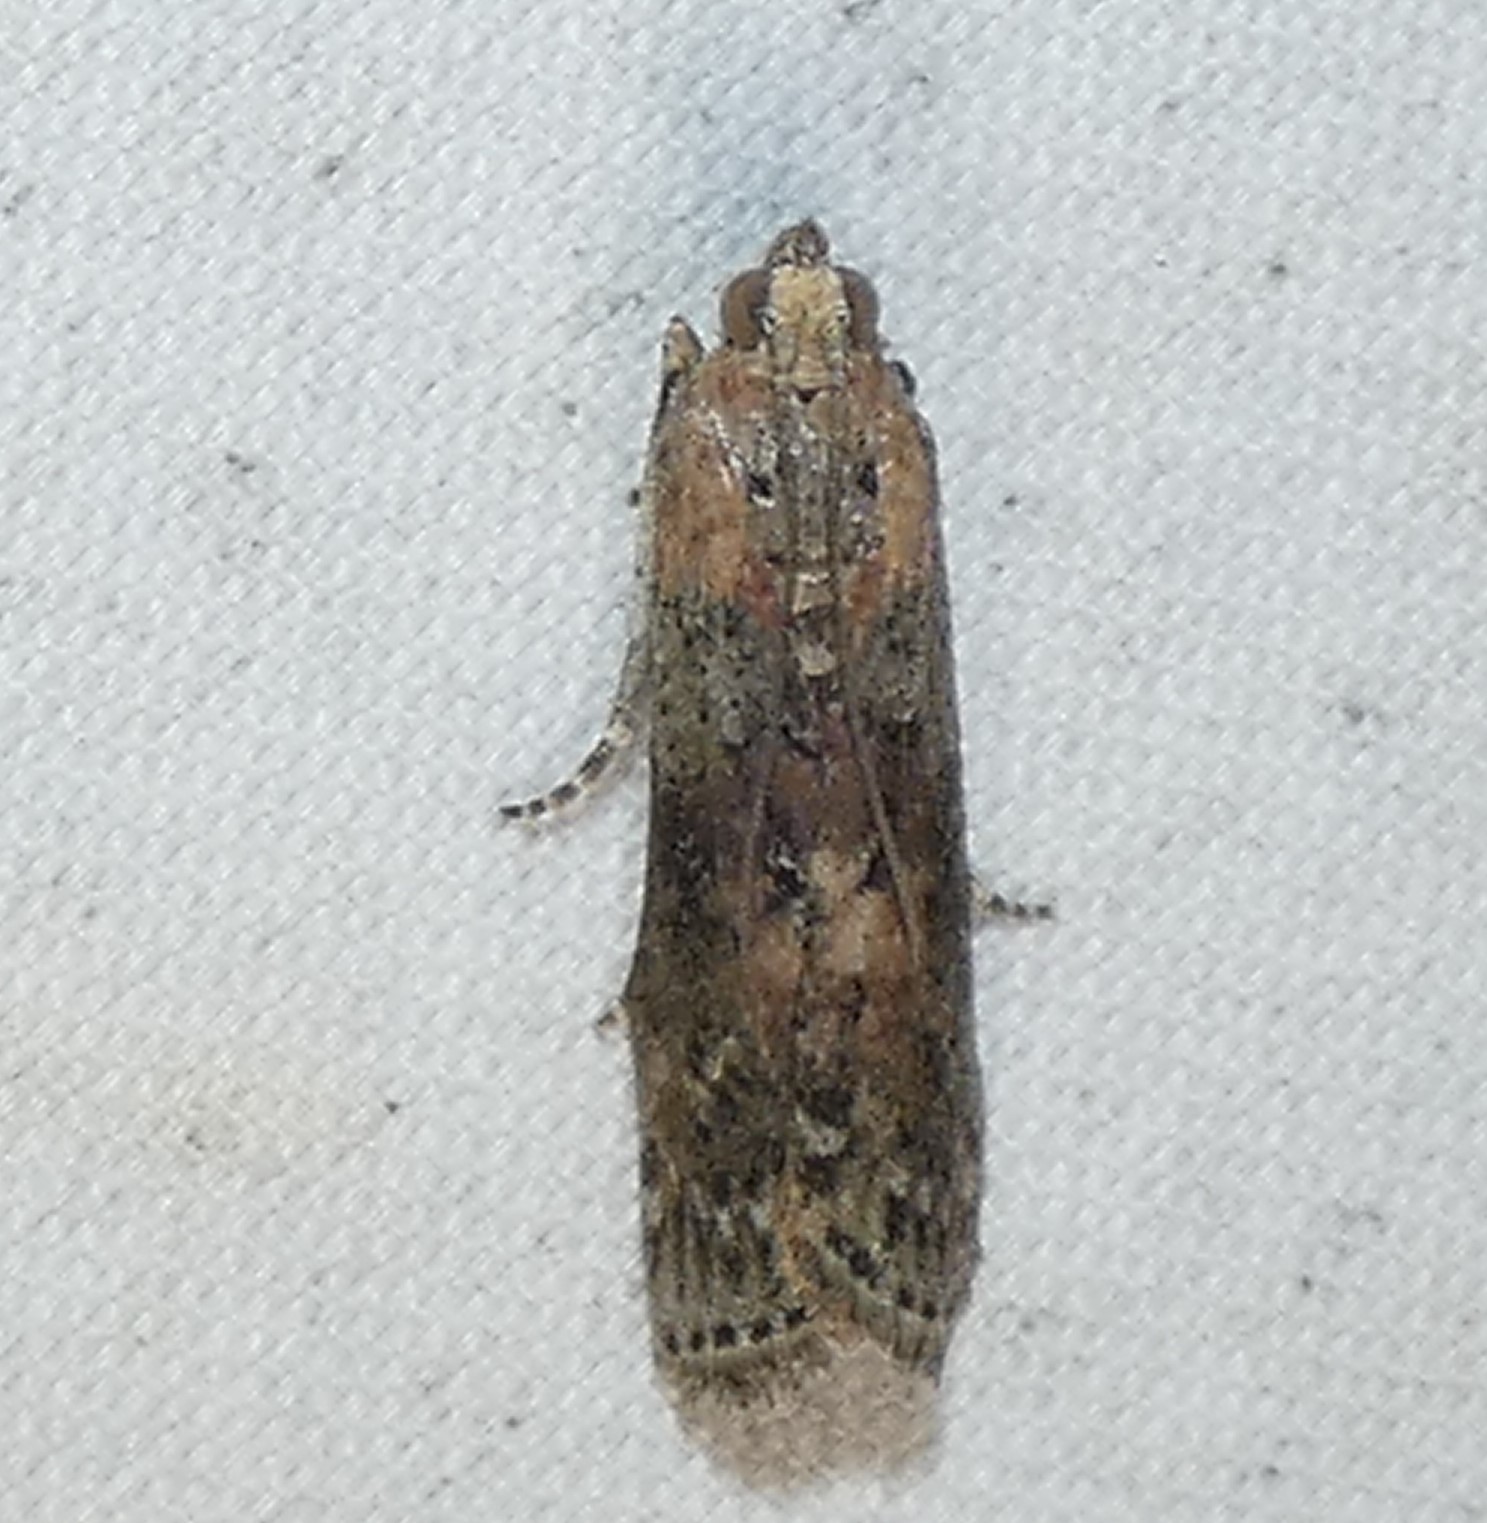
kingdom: Animalia
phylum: Arthropoda
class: Insecta
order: Lepidoptera
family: Pyralidae
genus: Sciota
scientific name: Sciota celtidella
